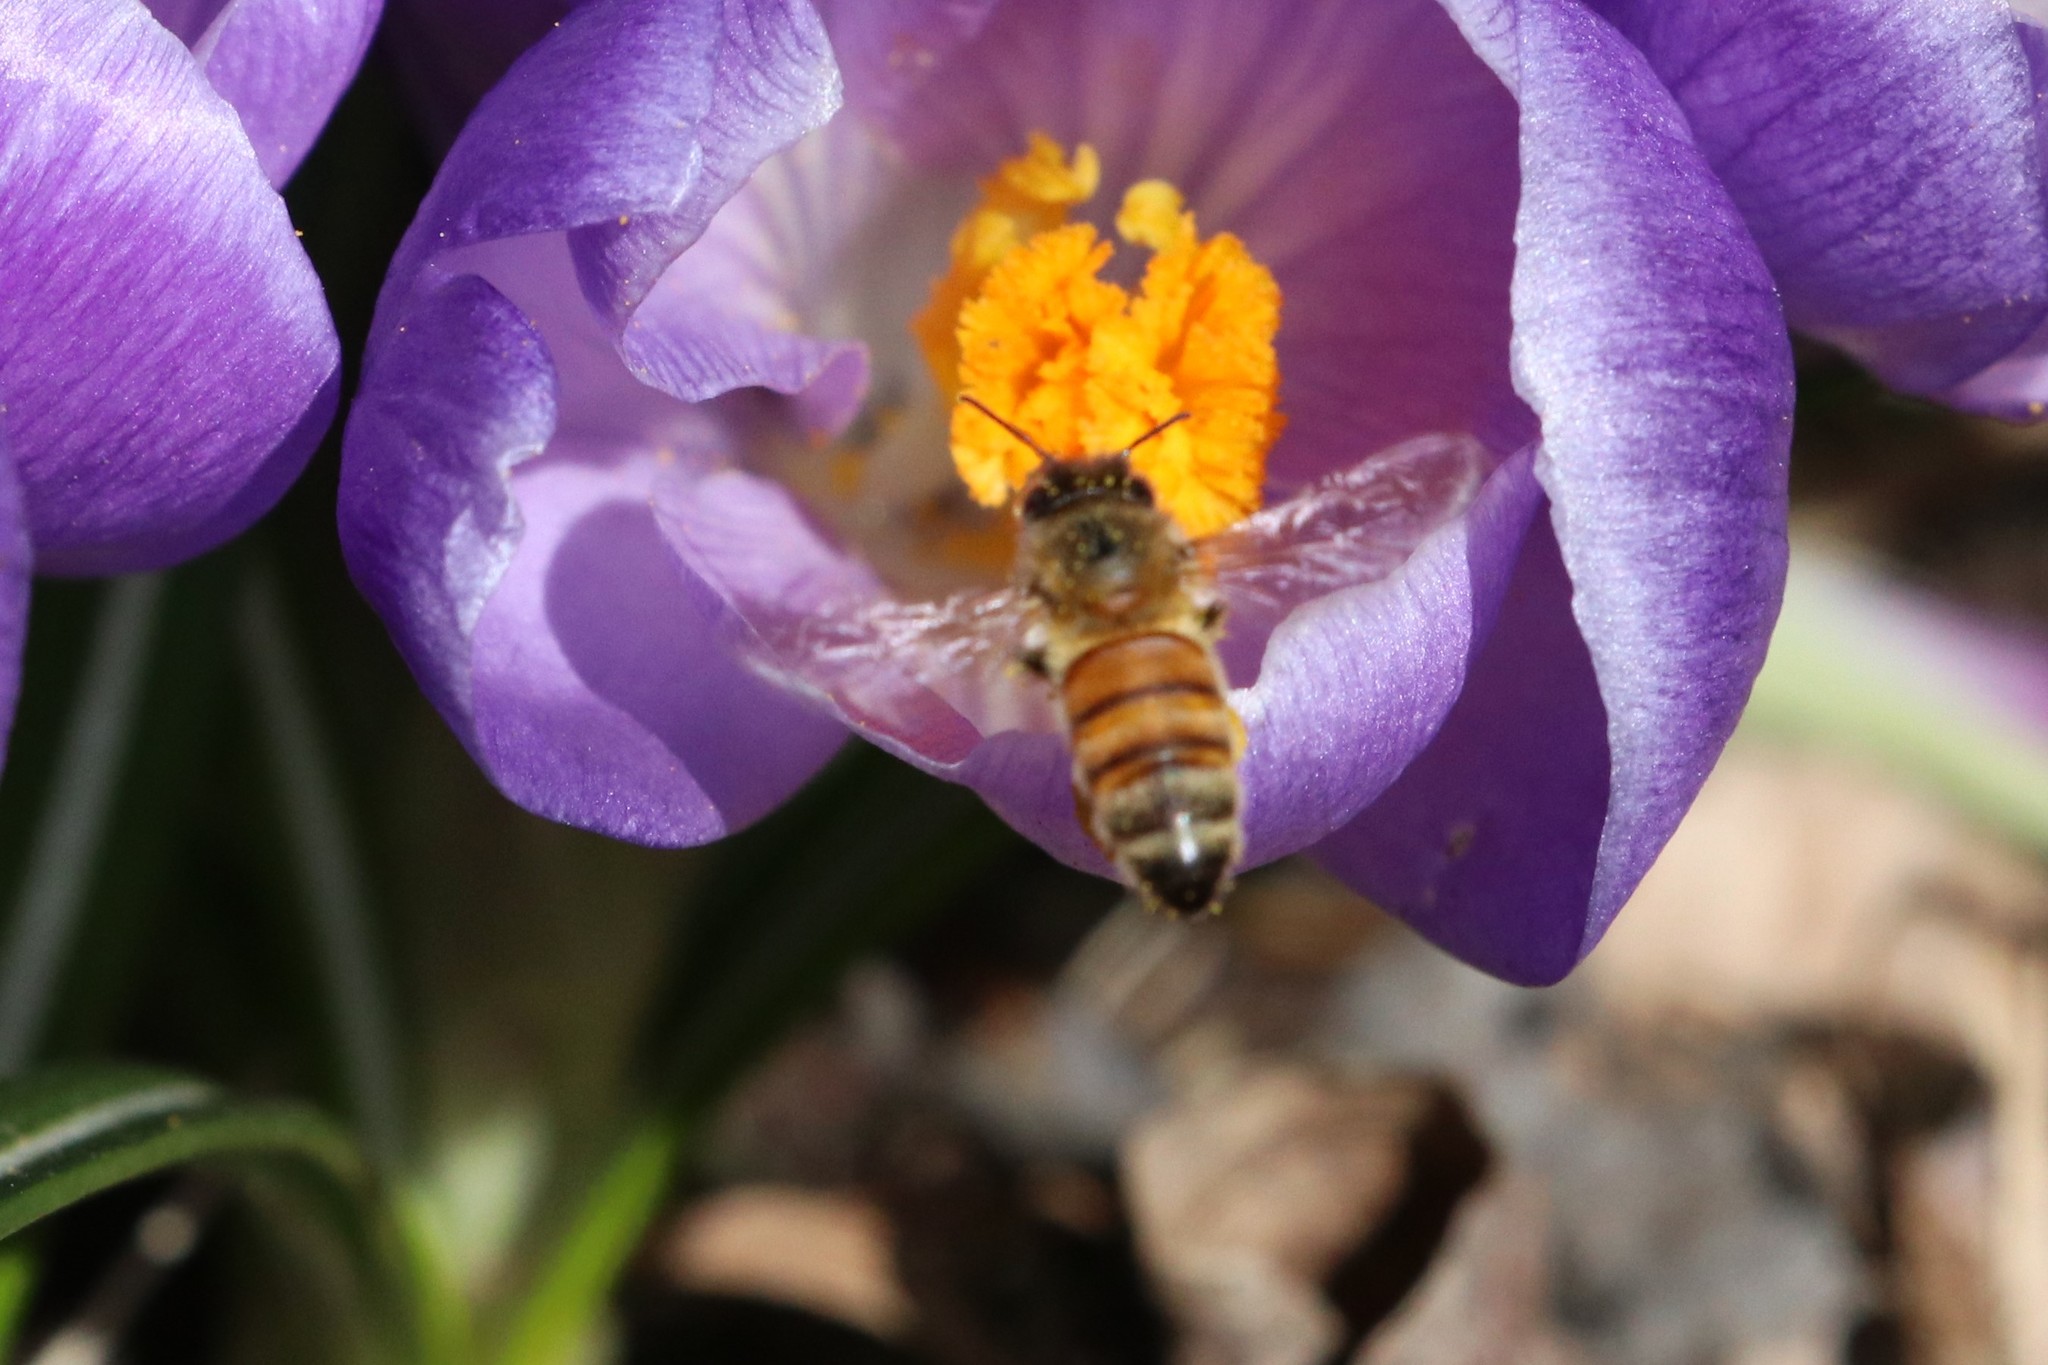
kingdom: Animalia
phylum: Arthropoda
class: Insecta
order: Hymenoptera
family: Apidae
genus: Apis
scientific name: Apis mellifera
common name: Honey bee
